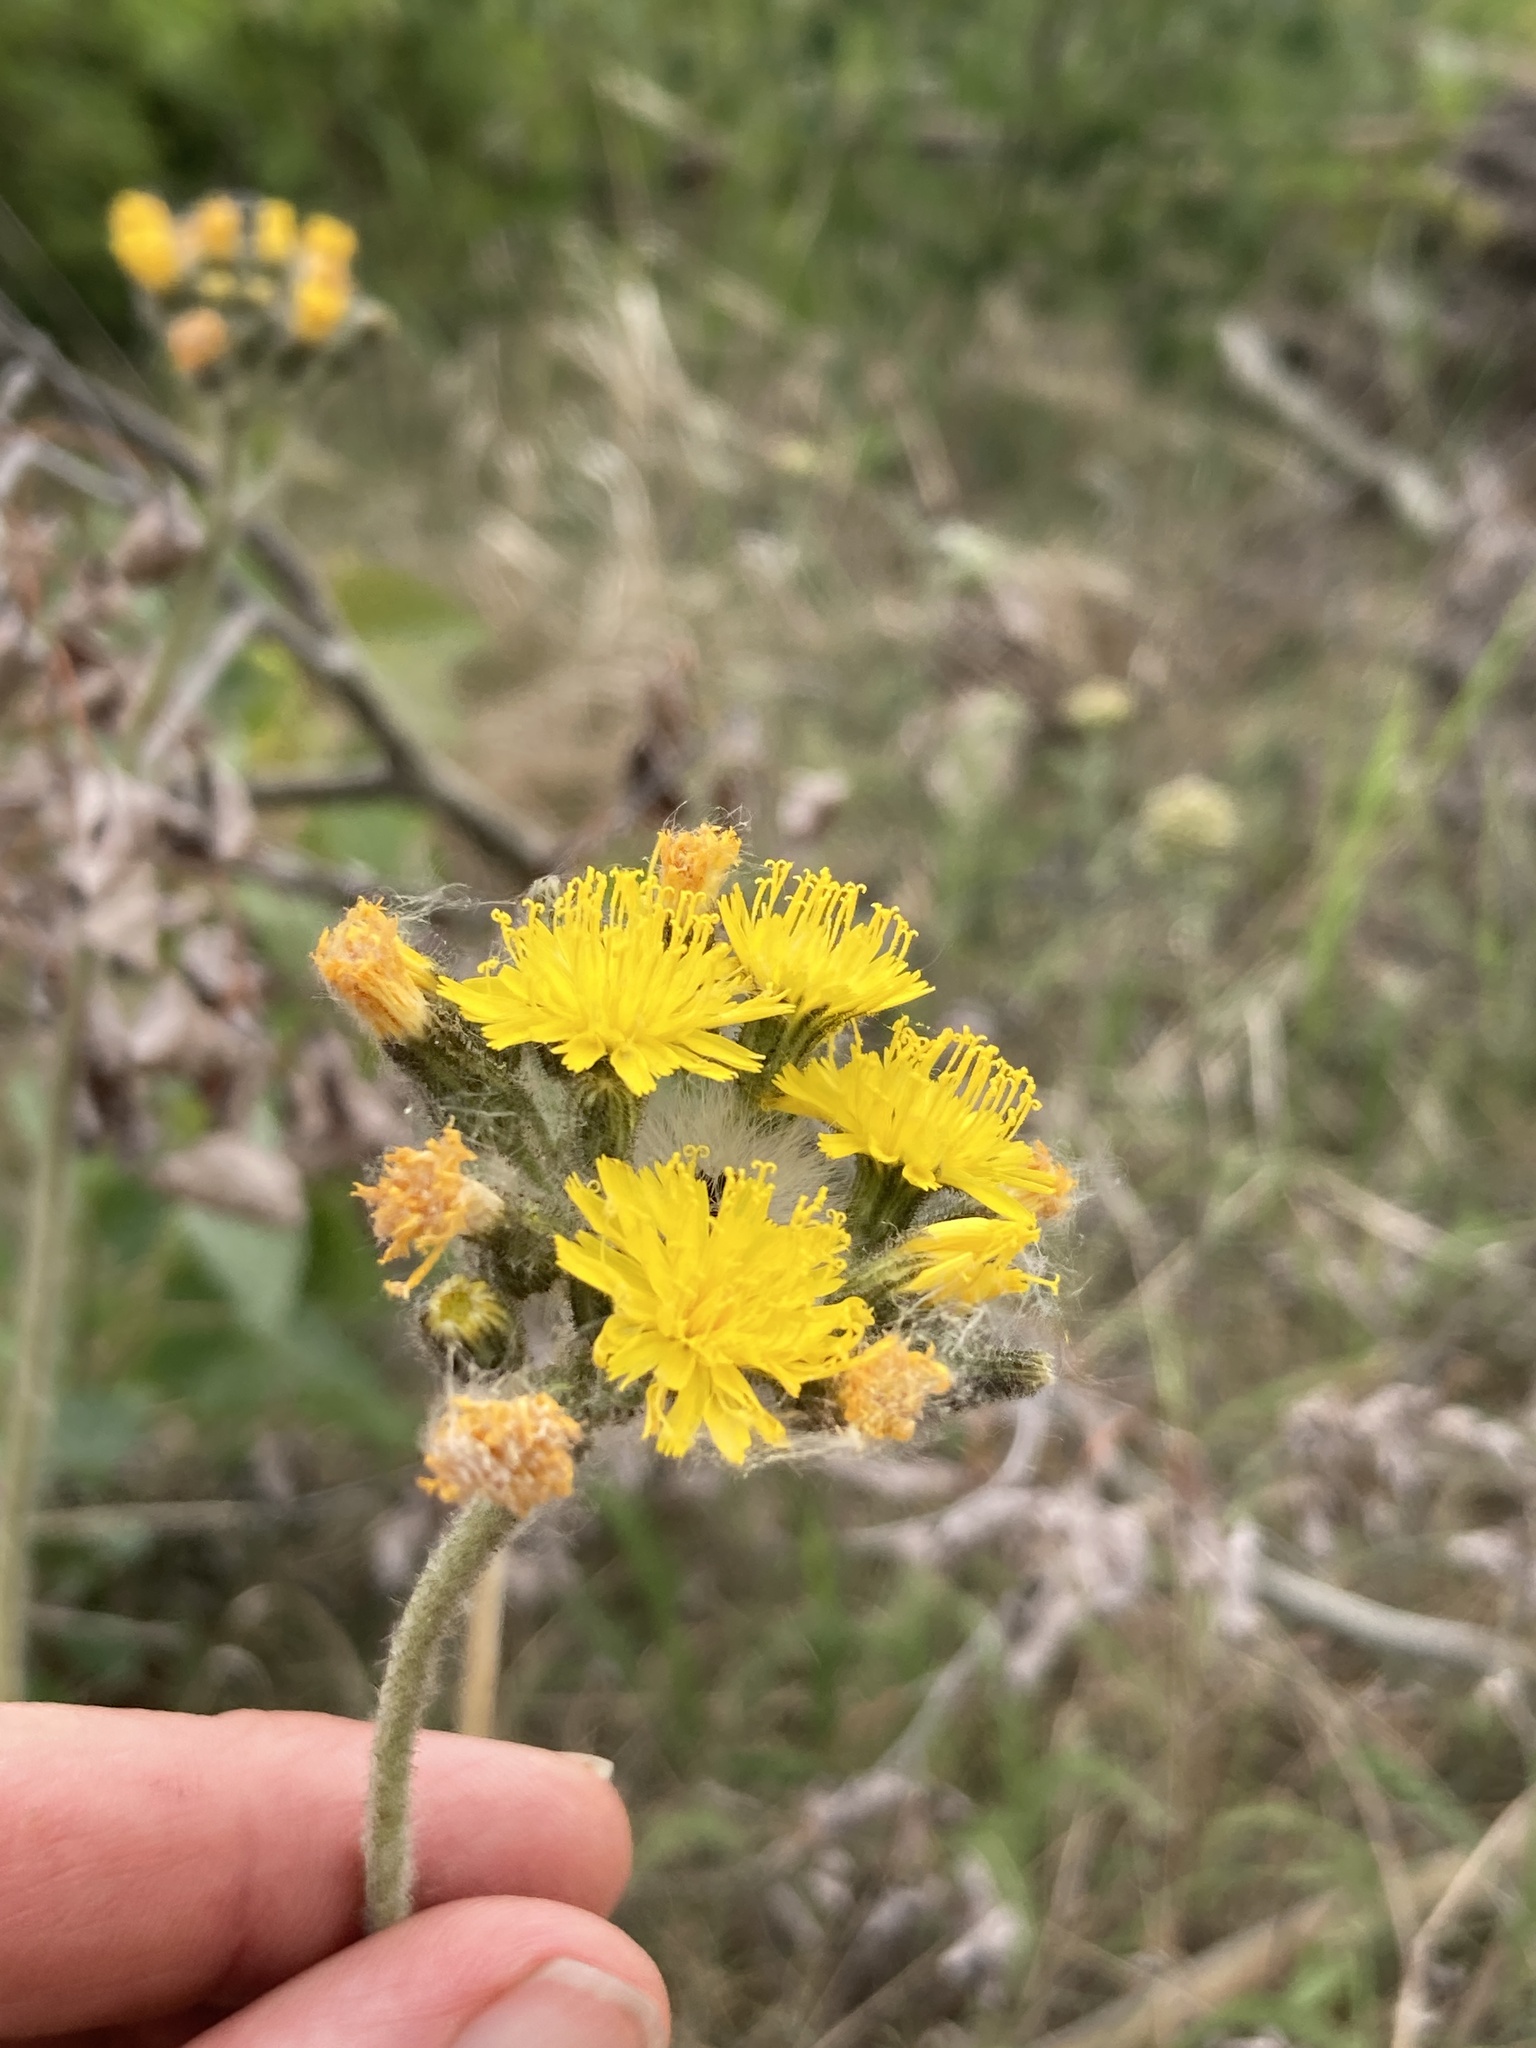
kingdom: Plantae
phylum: Tracheophyta
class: Magnoliopsida
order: Asterales
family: Asteraceae
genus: Pilosella
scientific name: Pilosella caespitosa
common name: Yellow fox-and-cubs
